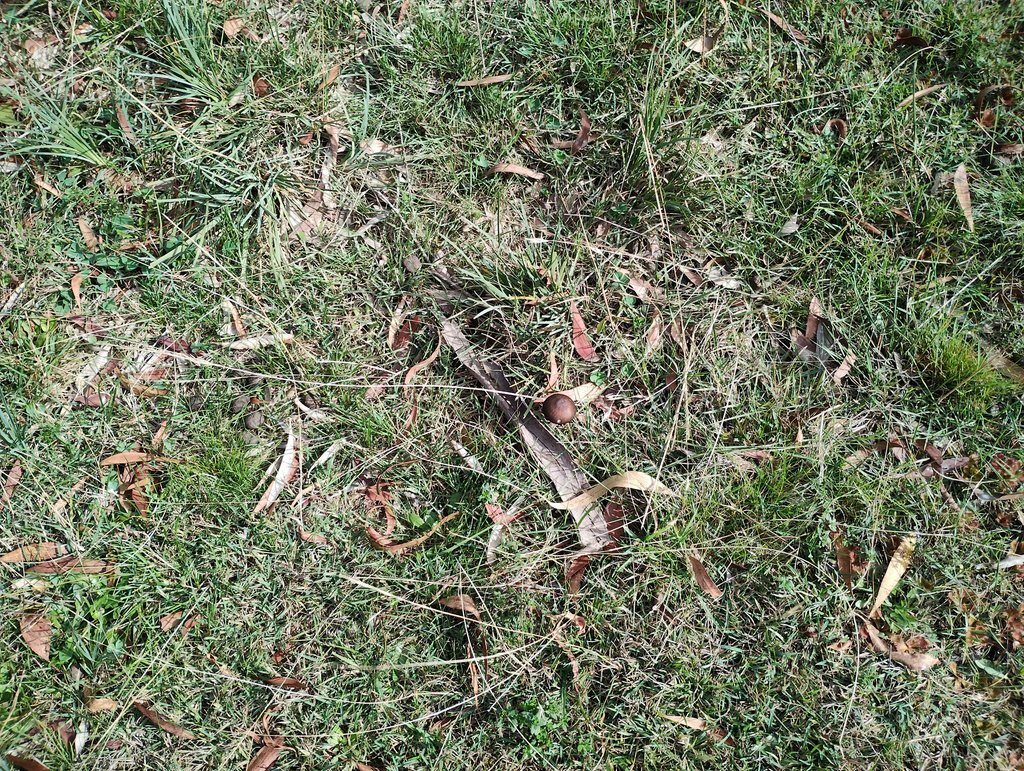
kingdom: Fungi
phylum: Basidiomycota
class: Agaricomycetes
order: Agaricales
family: Physalacriaceae
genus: Hymenopellis
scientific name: Hymenopellis gigaspora
